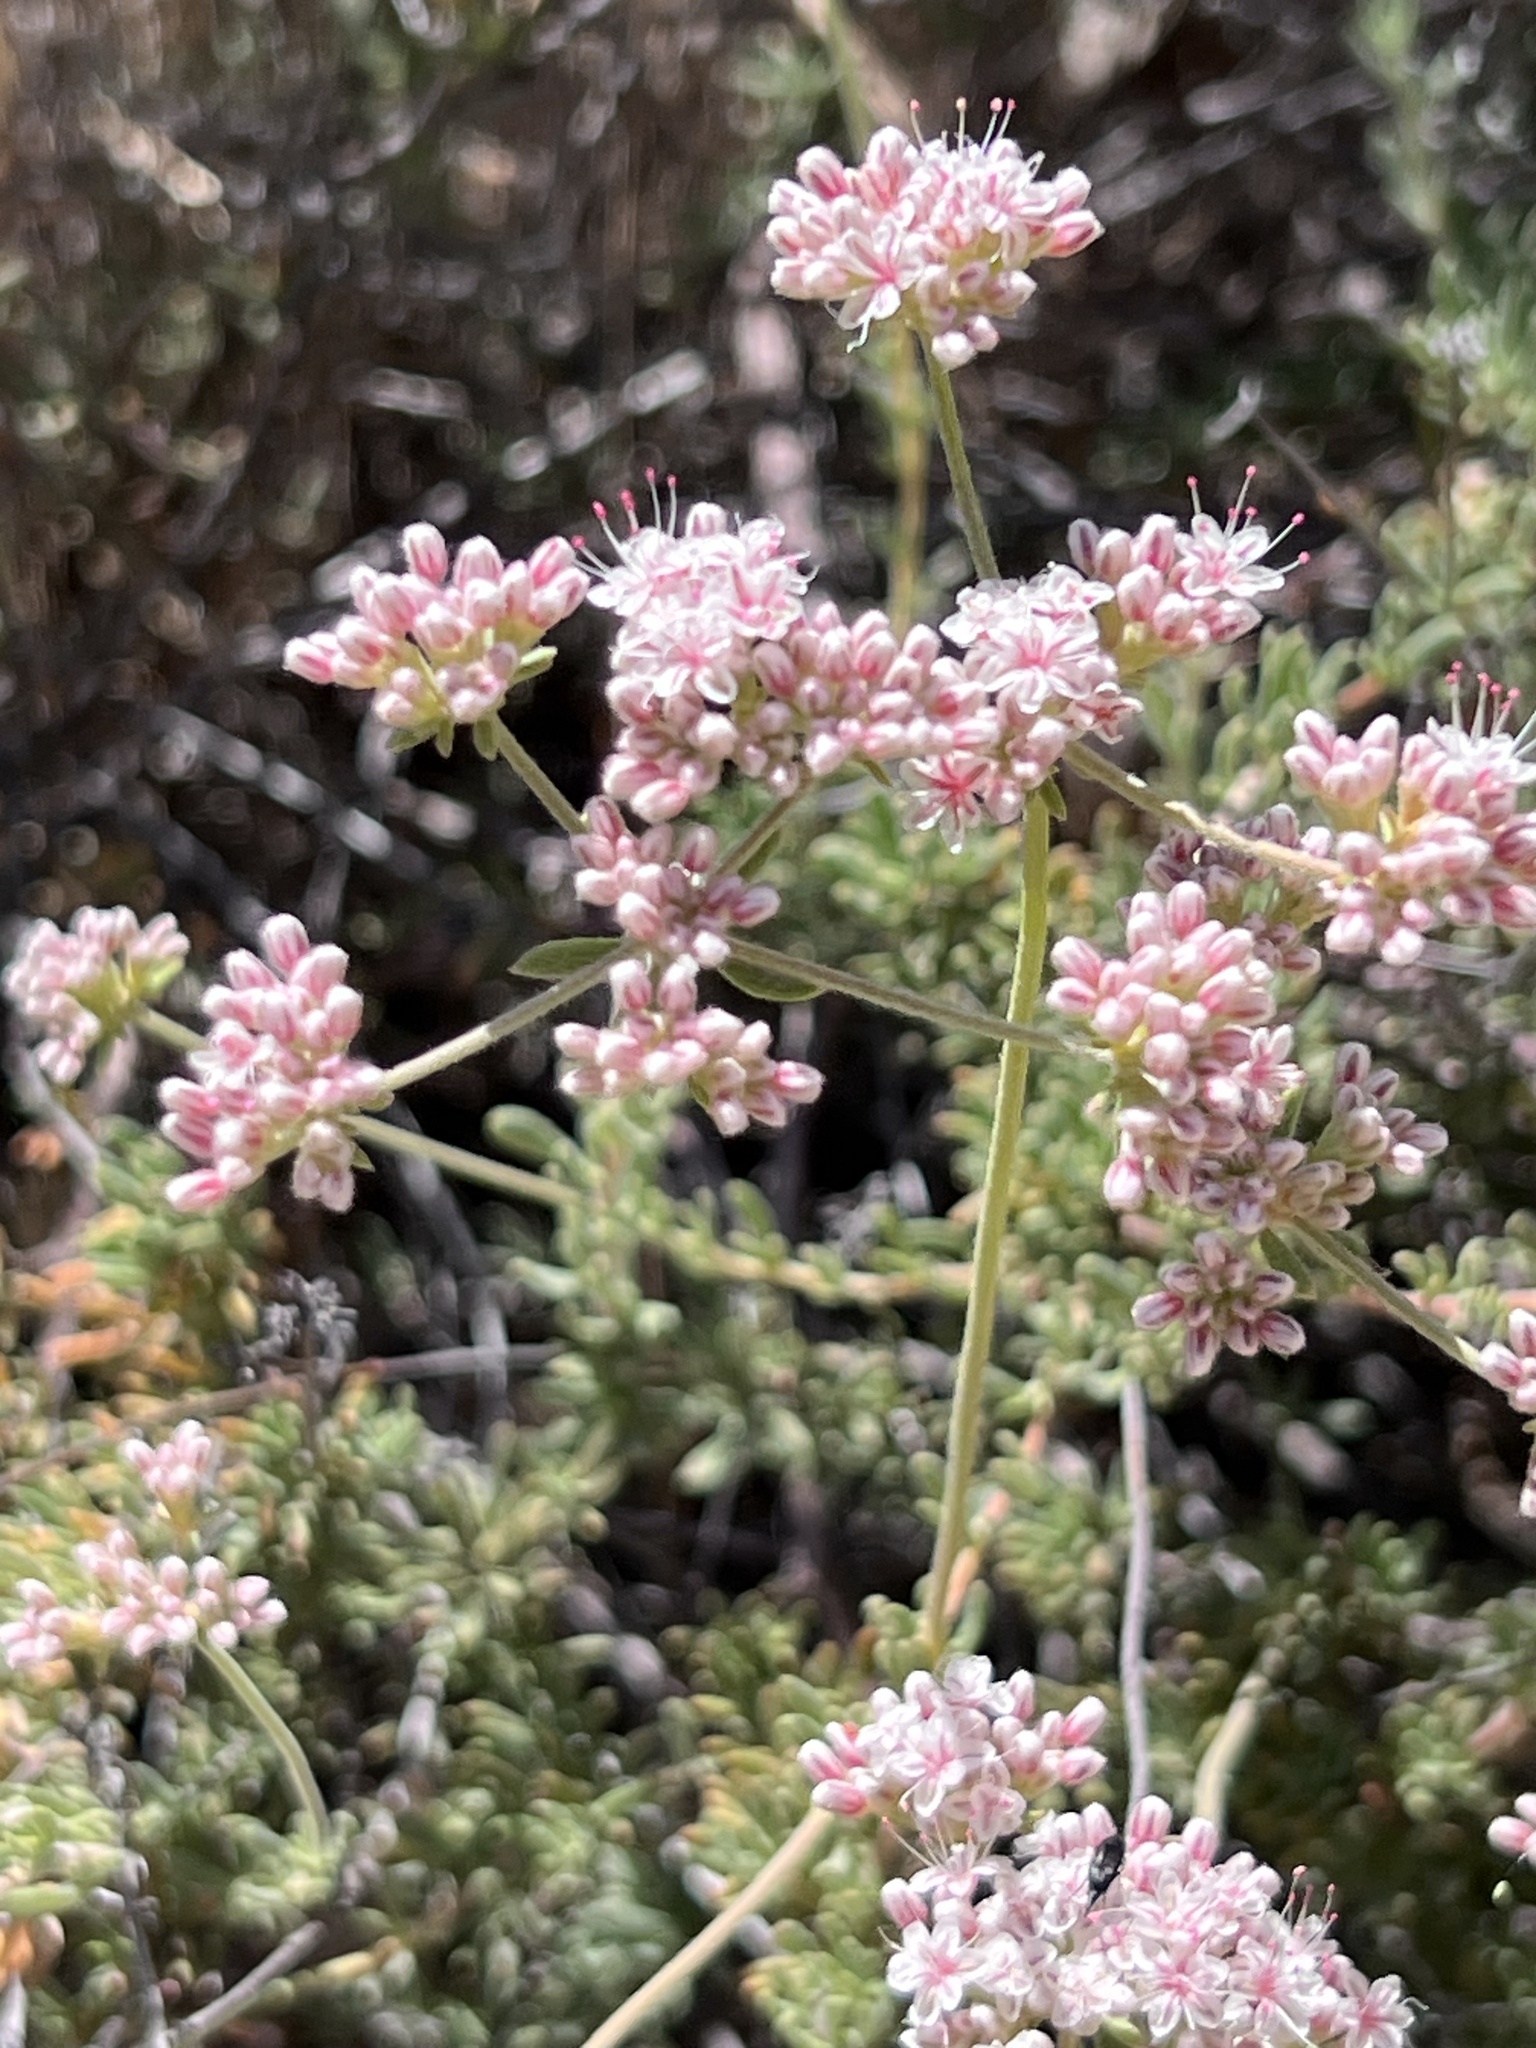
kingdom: Plantae
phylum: Tracheophyta
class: Magnoliopsida
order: Caryophyllales
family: Polygonaceae
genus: Eriogonum
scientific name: Eriogonum fasciculatum
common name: California wild buckwheat
